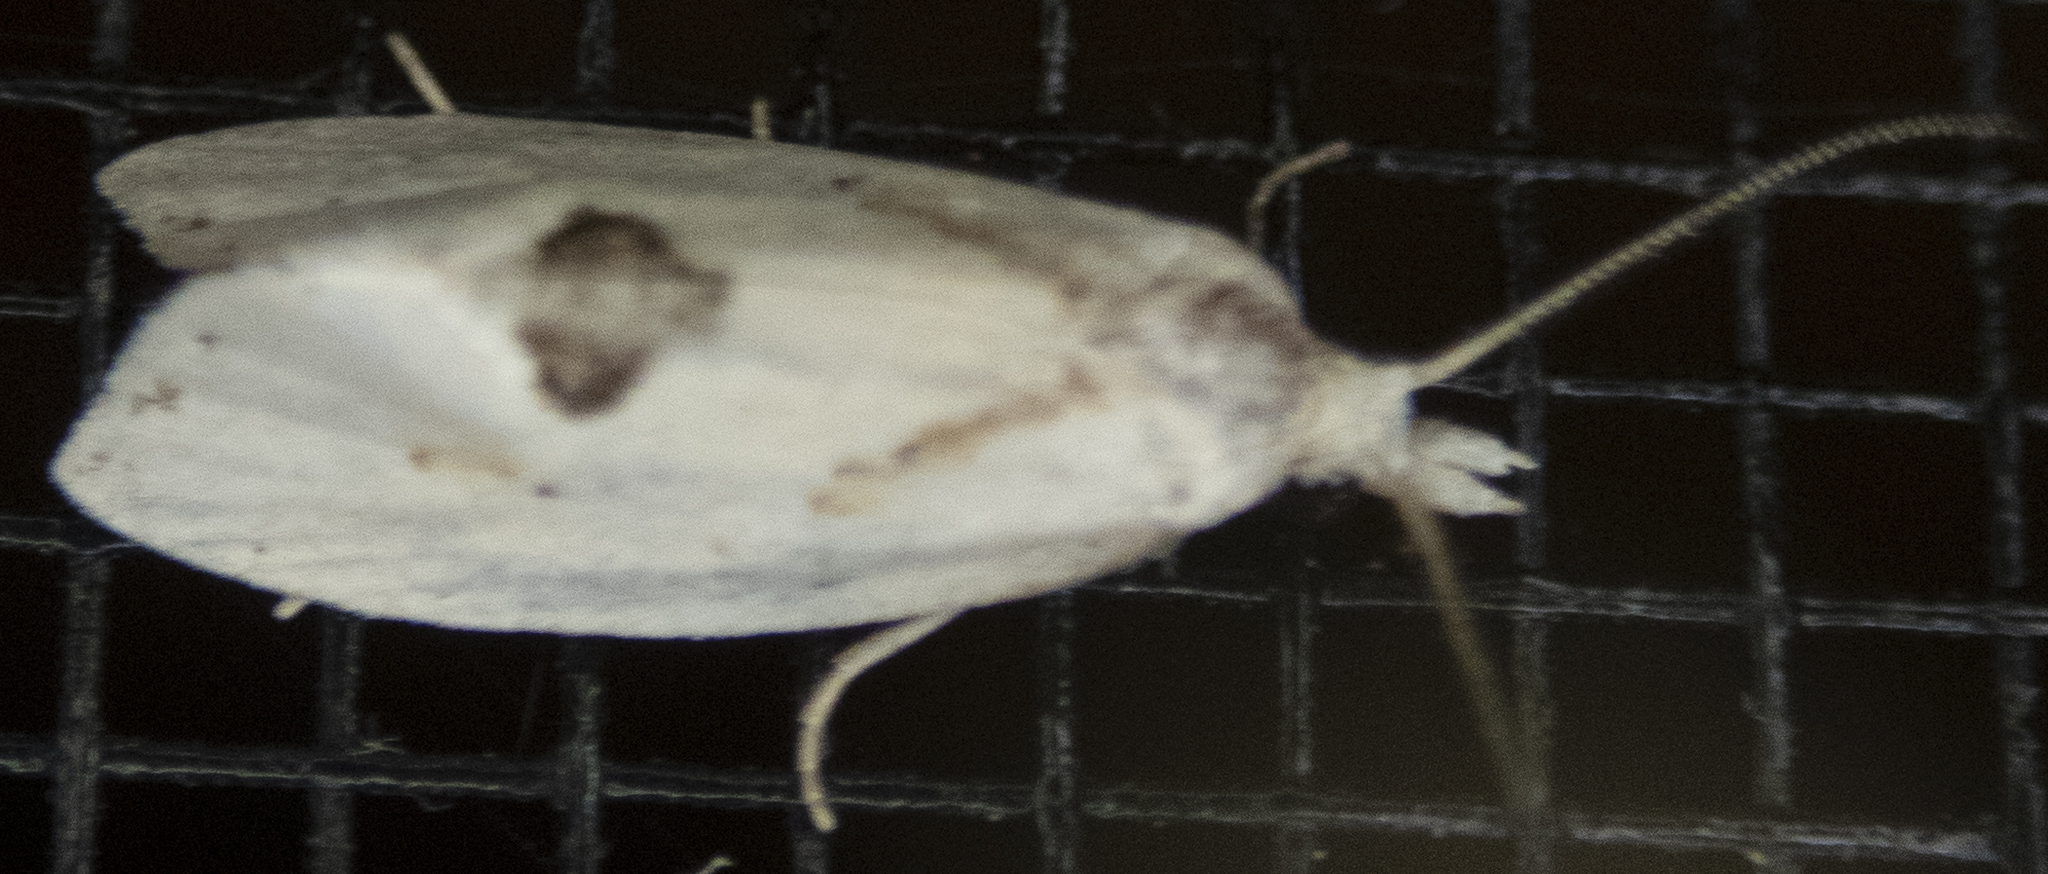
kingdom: Animalia
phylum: Arthropoda
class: Insecta
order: Lepidoptera
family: Tortricidae
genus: Aethes
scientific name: Aethes mymara
